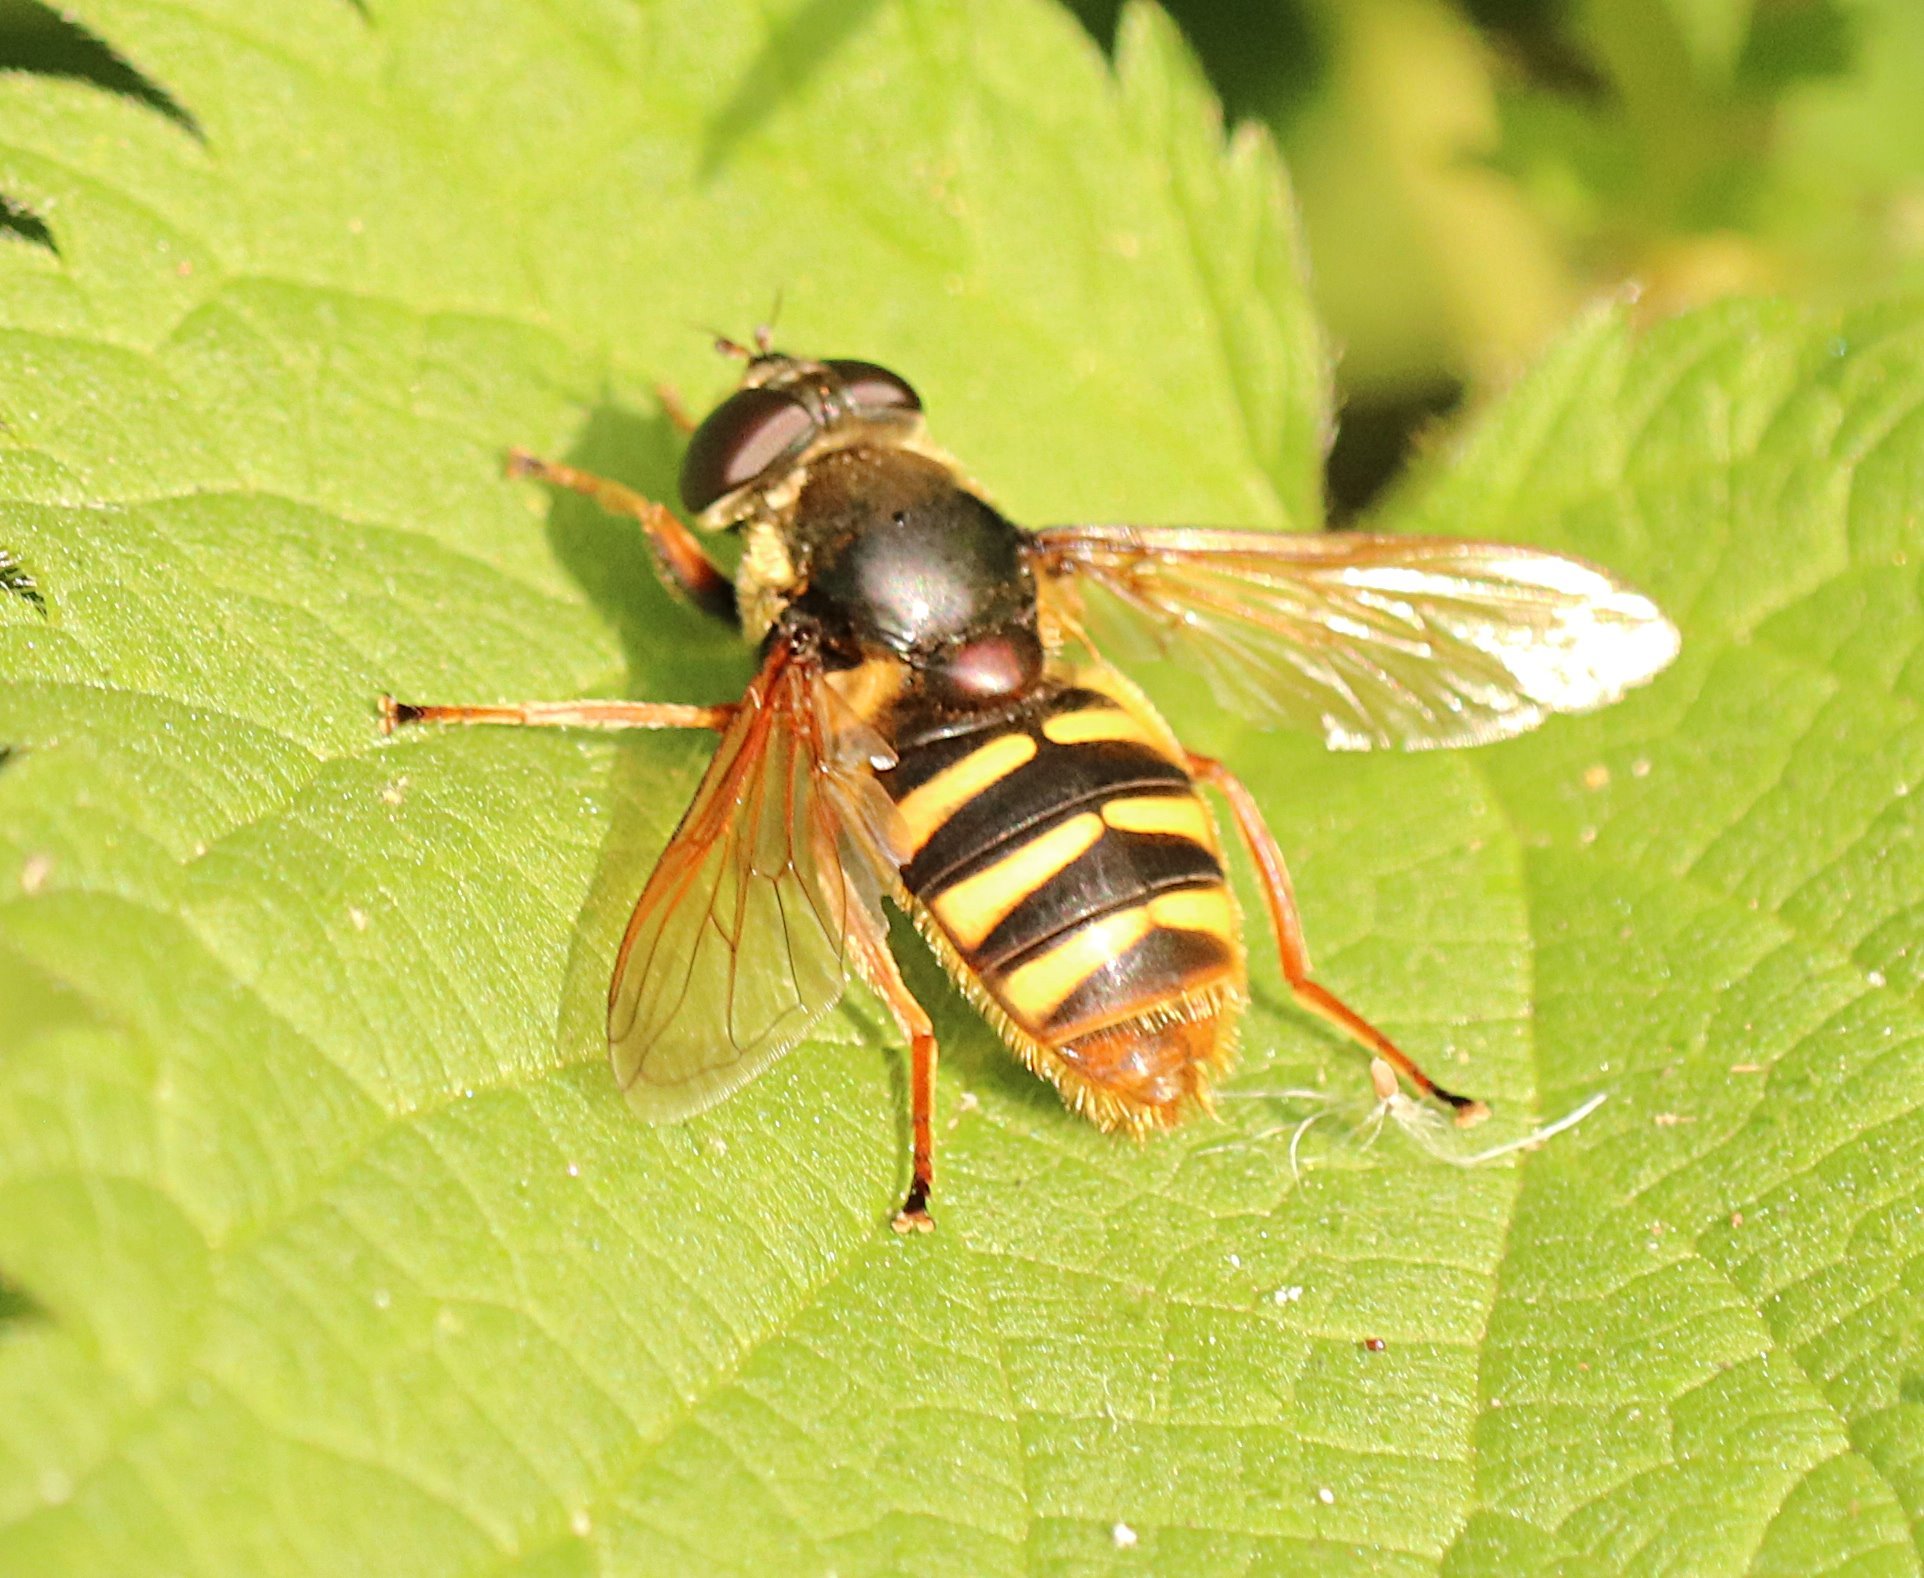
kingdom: Animalia
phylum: Arthropoda
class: Insecta
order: Diptera
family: Syrphidae
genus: Sericomyia
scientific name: Sericomyia silentis
